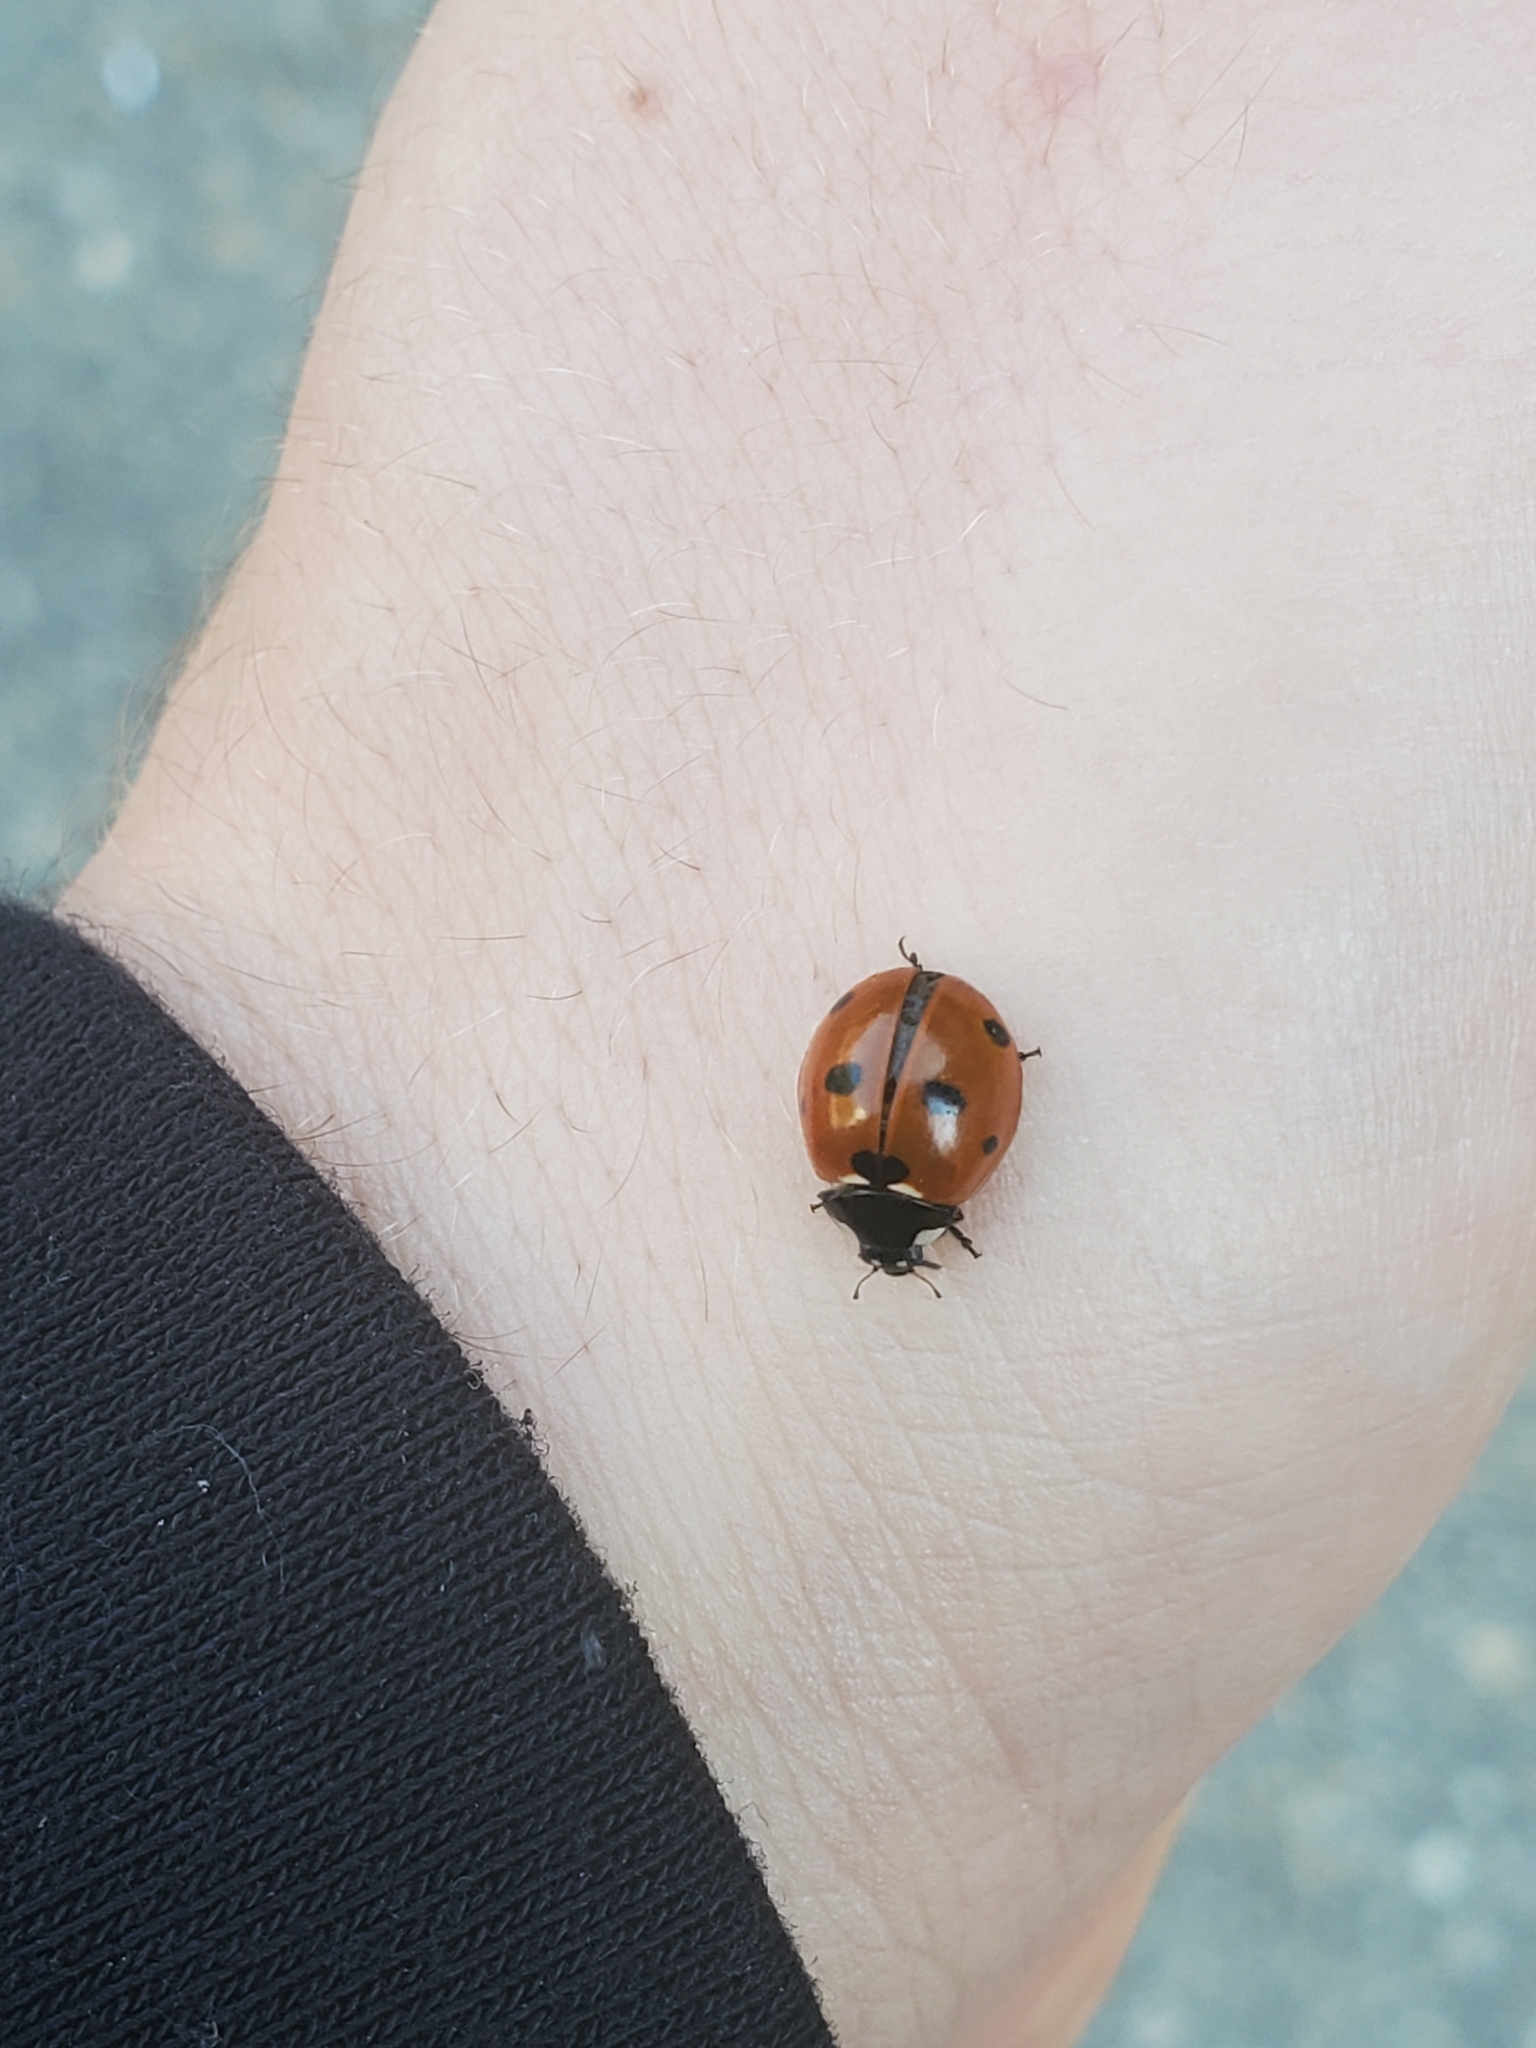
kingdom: Animalia
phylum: Arthropoda
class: Insecta
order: Coleoptera
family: Coccinellidae
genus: Coccinella
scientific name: Coccinella septempunctata
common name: Sevenspotted lady beetle
